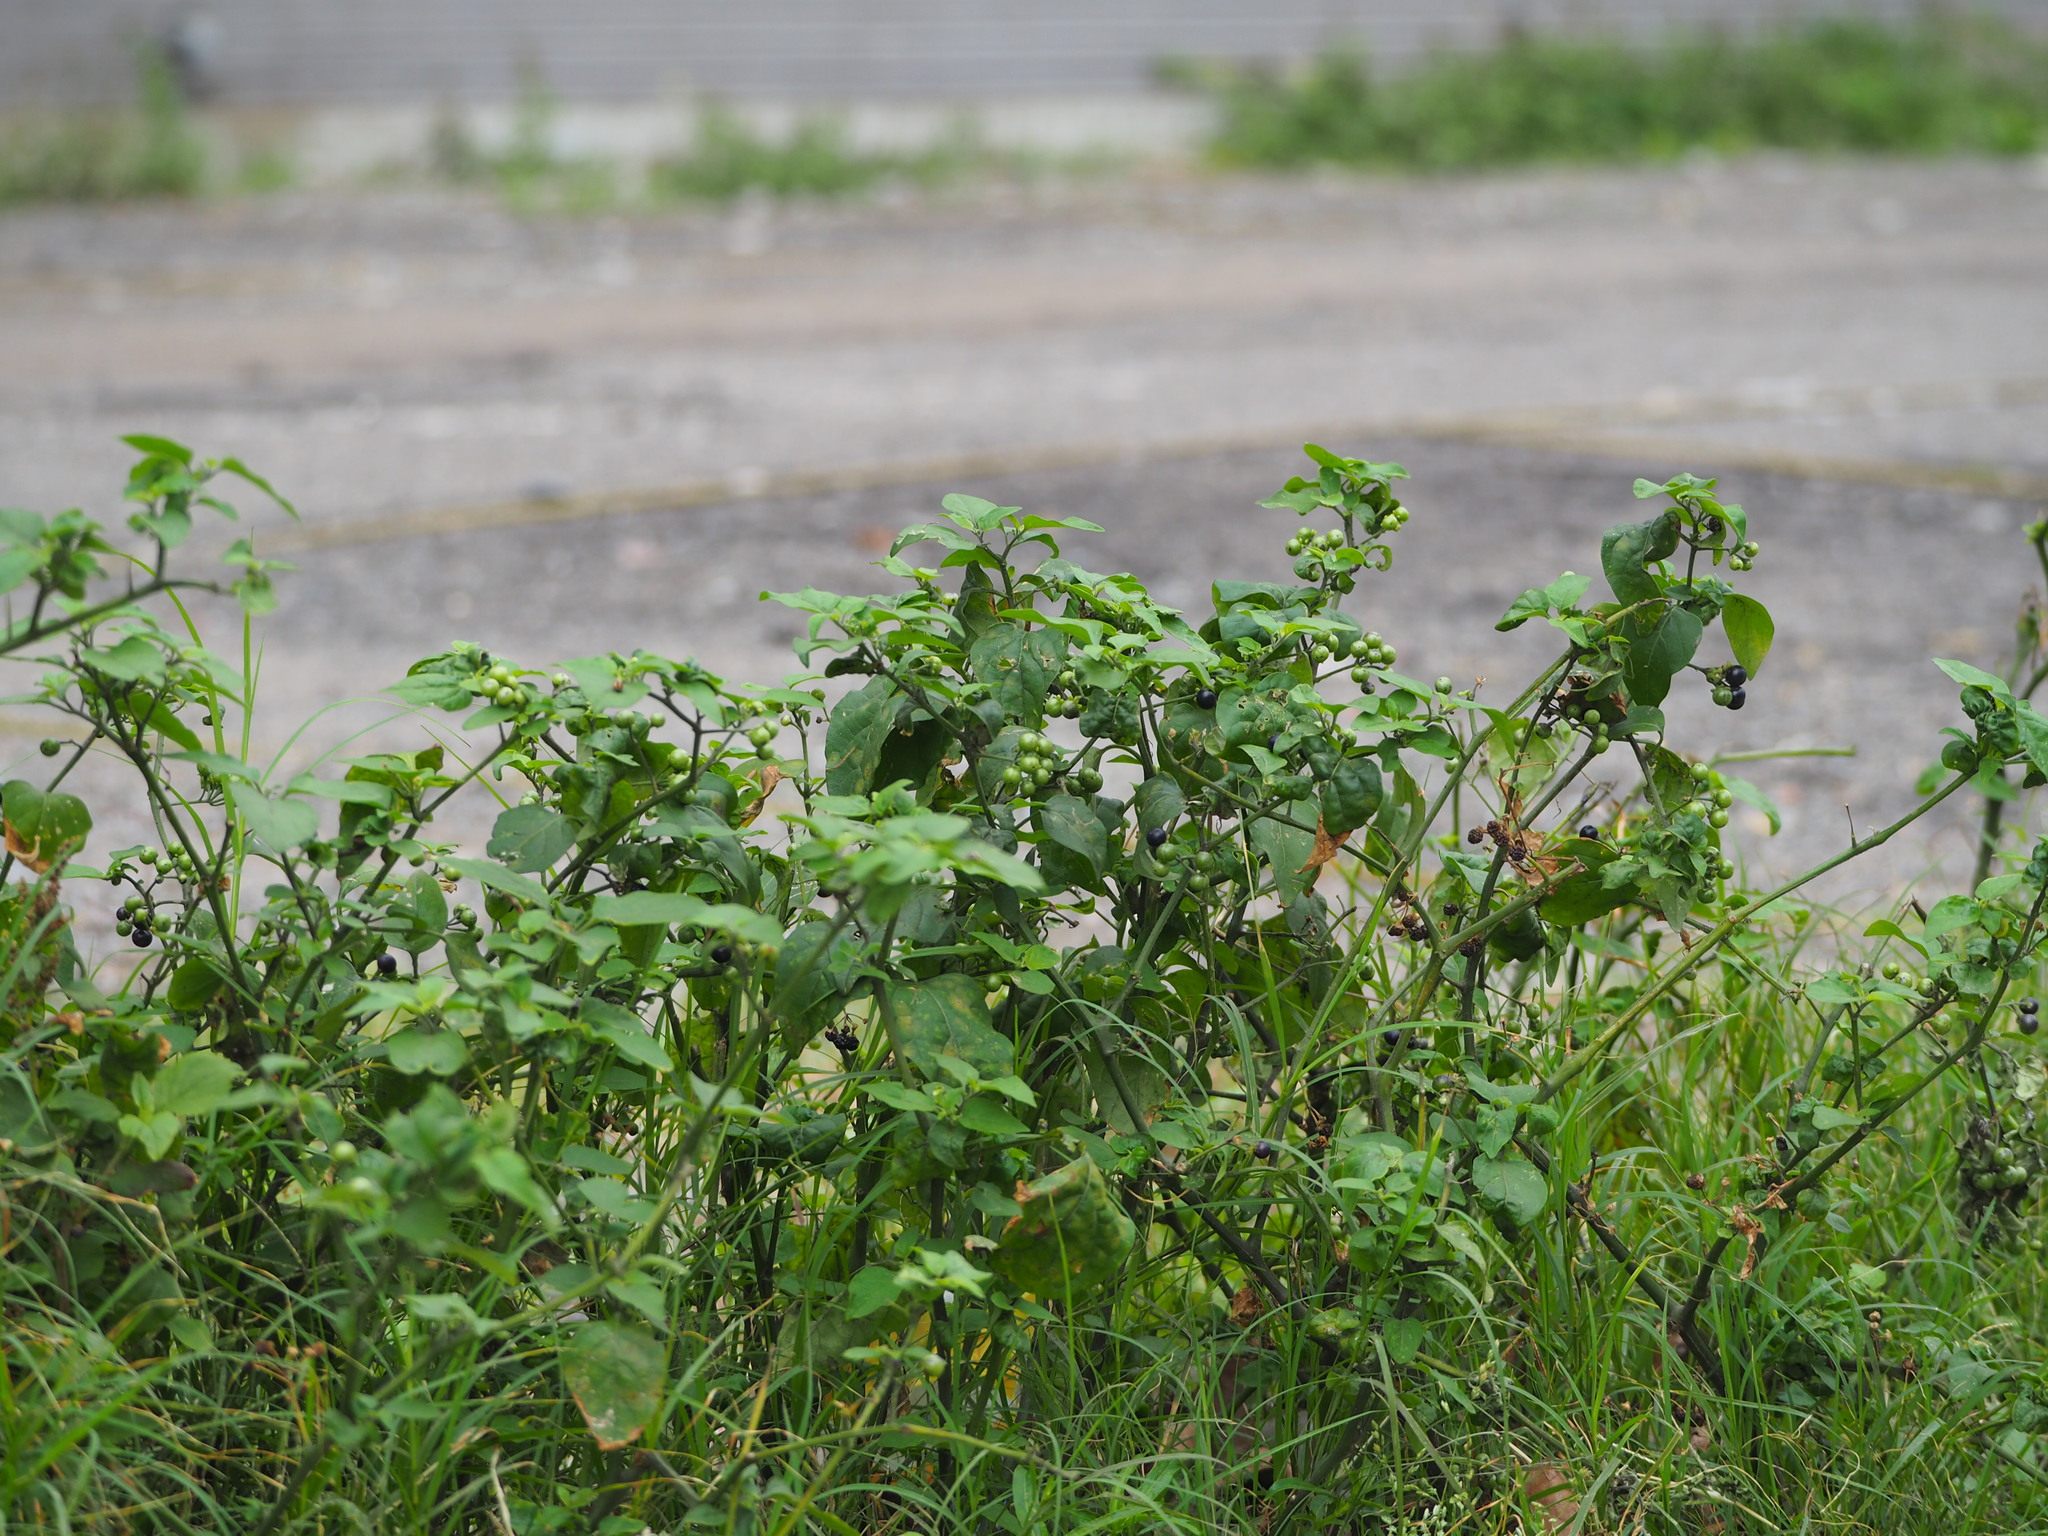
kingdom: Plantae
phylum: Tracheophyta
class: Magnoliopsida
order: Solanales
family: Solanaceae
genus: Solanum
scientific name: Solanum scabrum
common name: Garden-huckleberry
